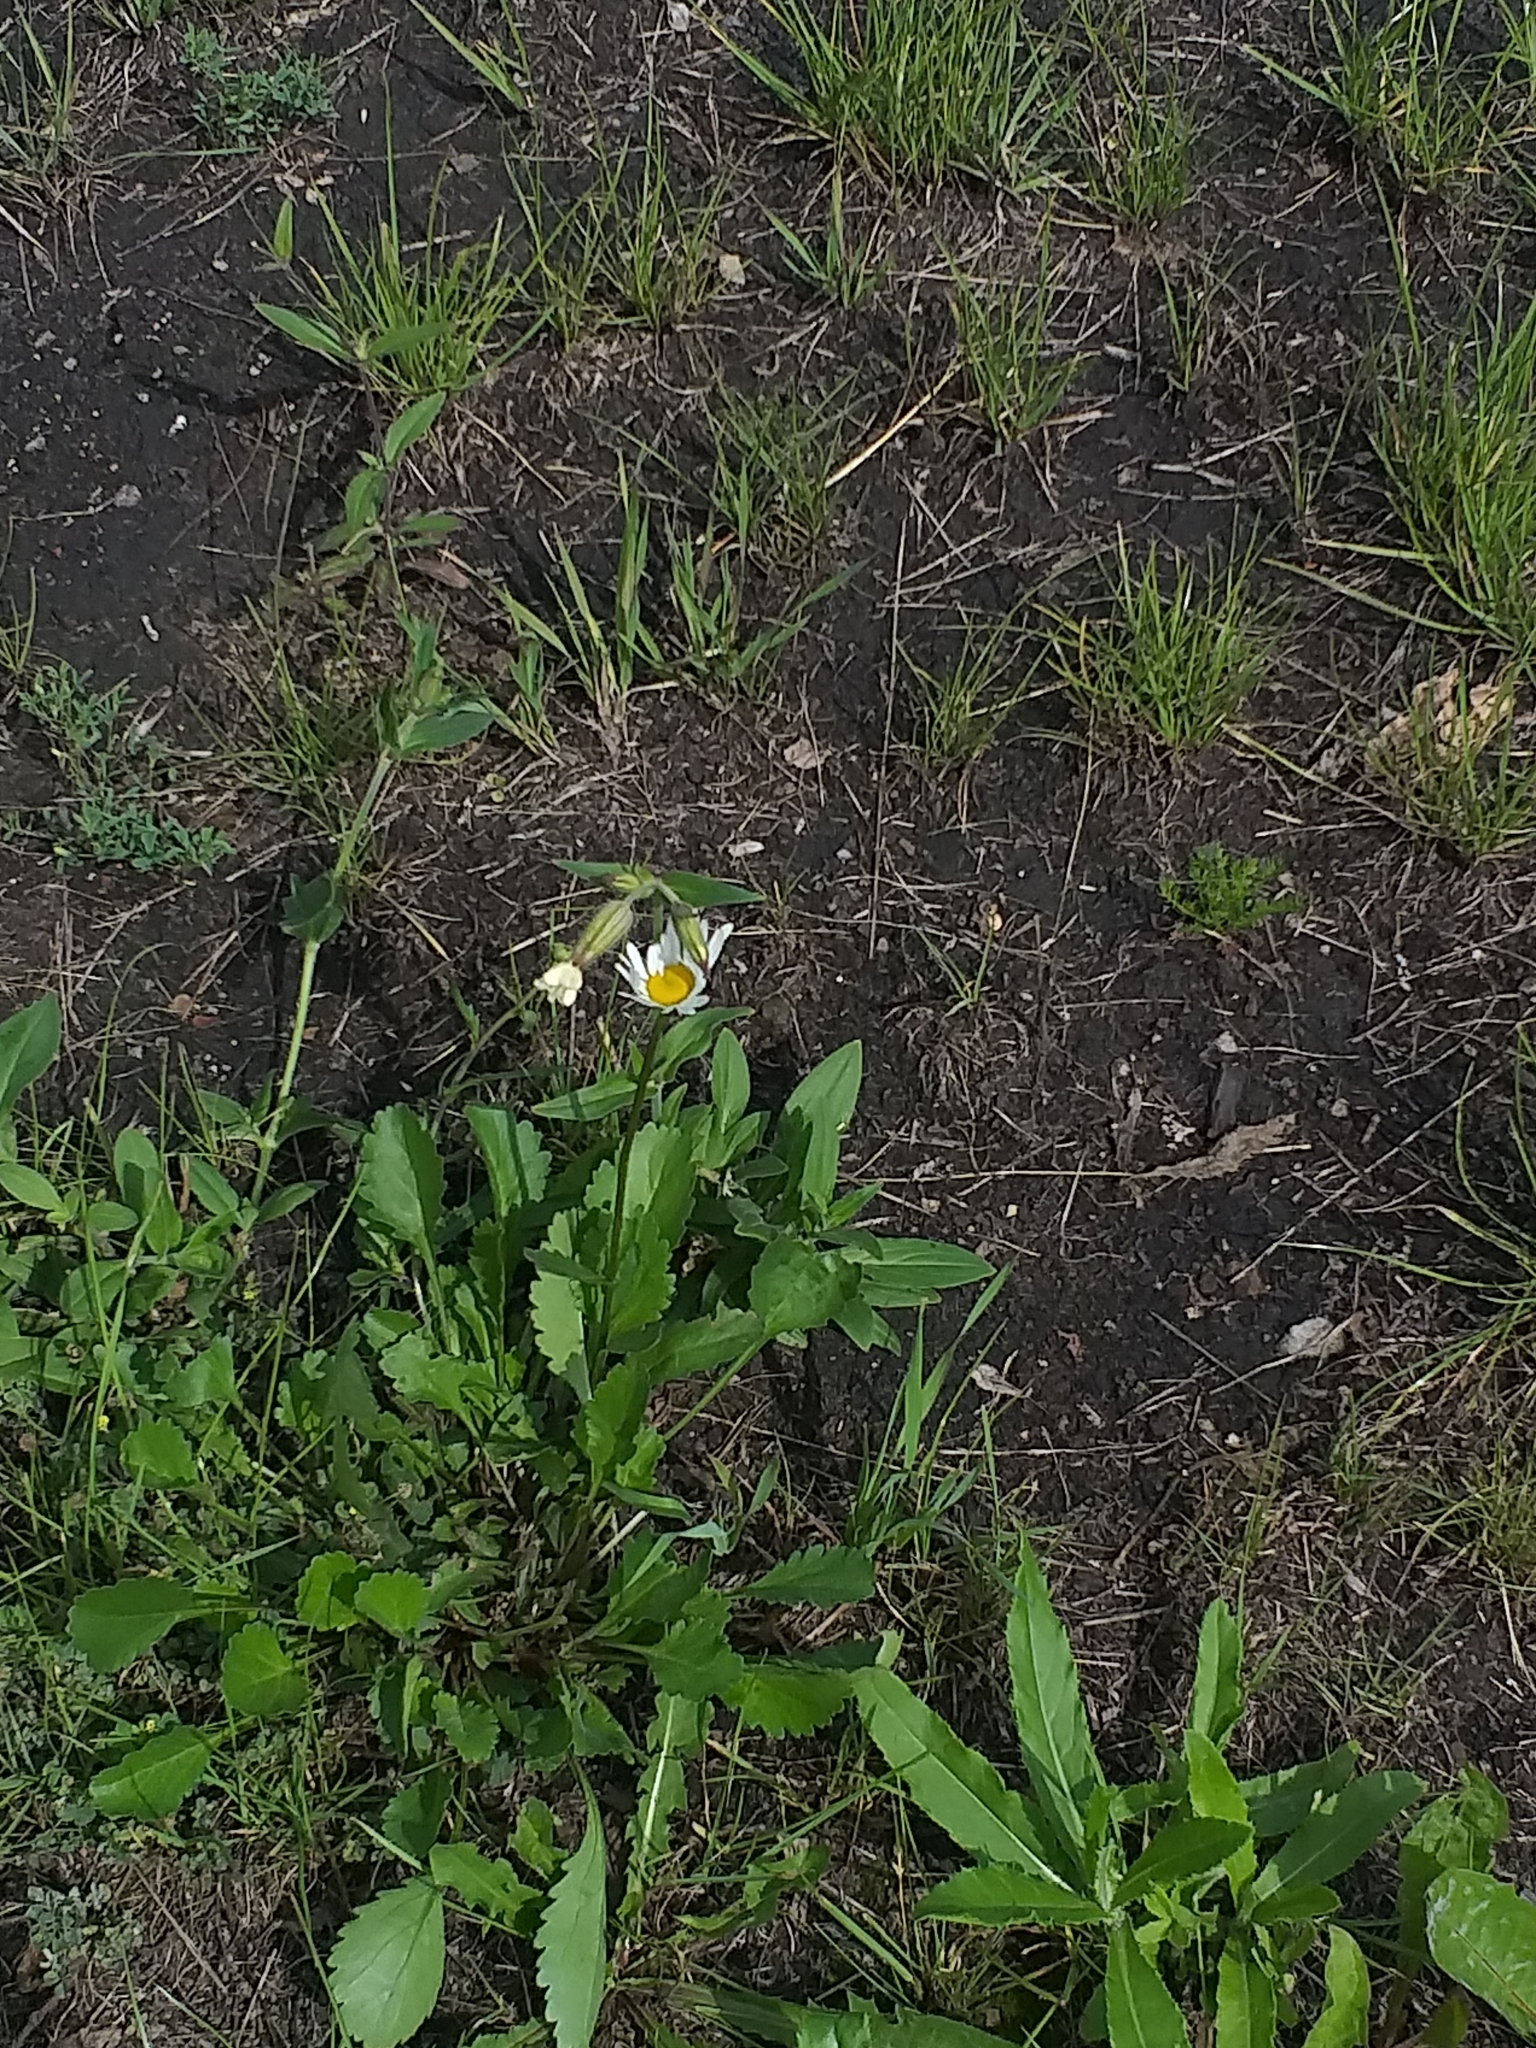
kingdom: Plantae
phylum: Tracheophyta
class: Magnoliopsida
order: Asterales
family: Asteraceae
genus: Leucanthemum
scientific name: Leucanthemum vulgare
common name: Oxeye daisy
